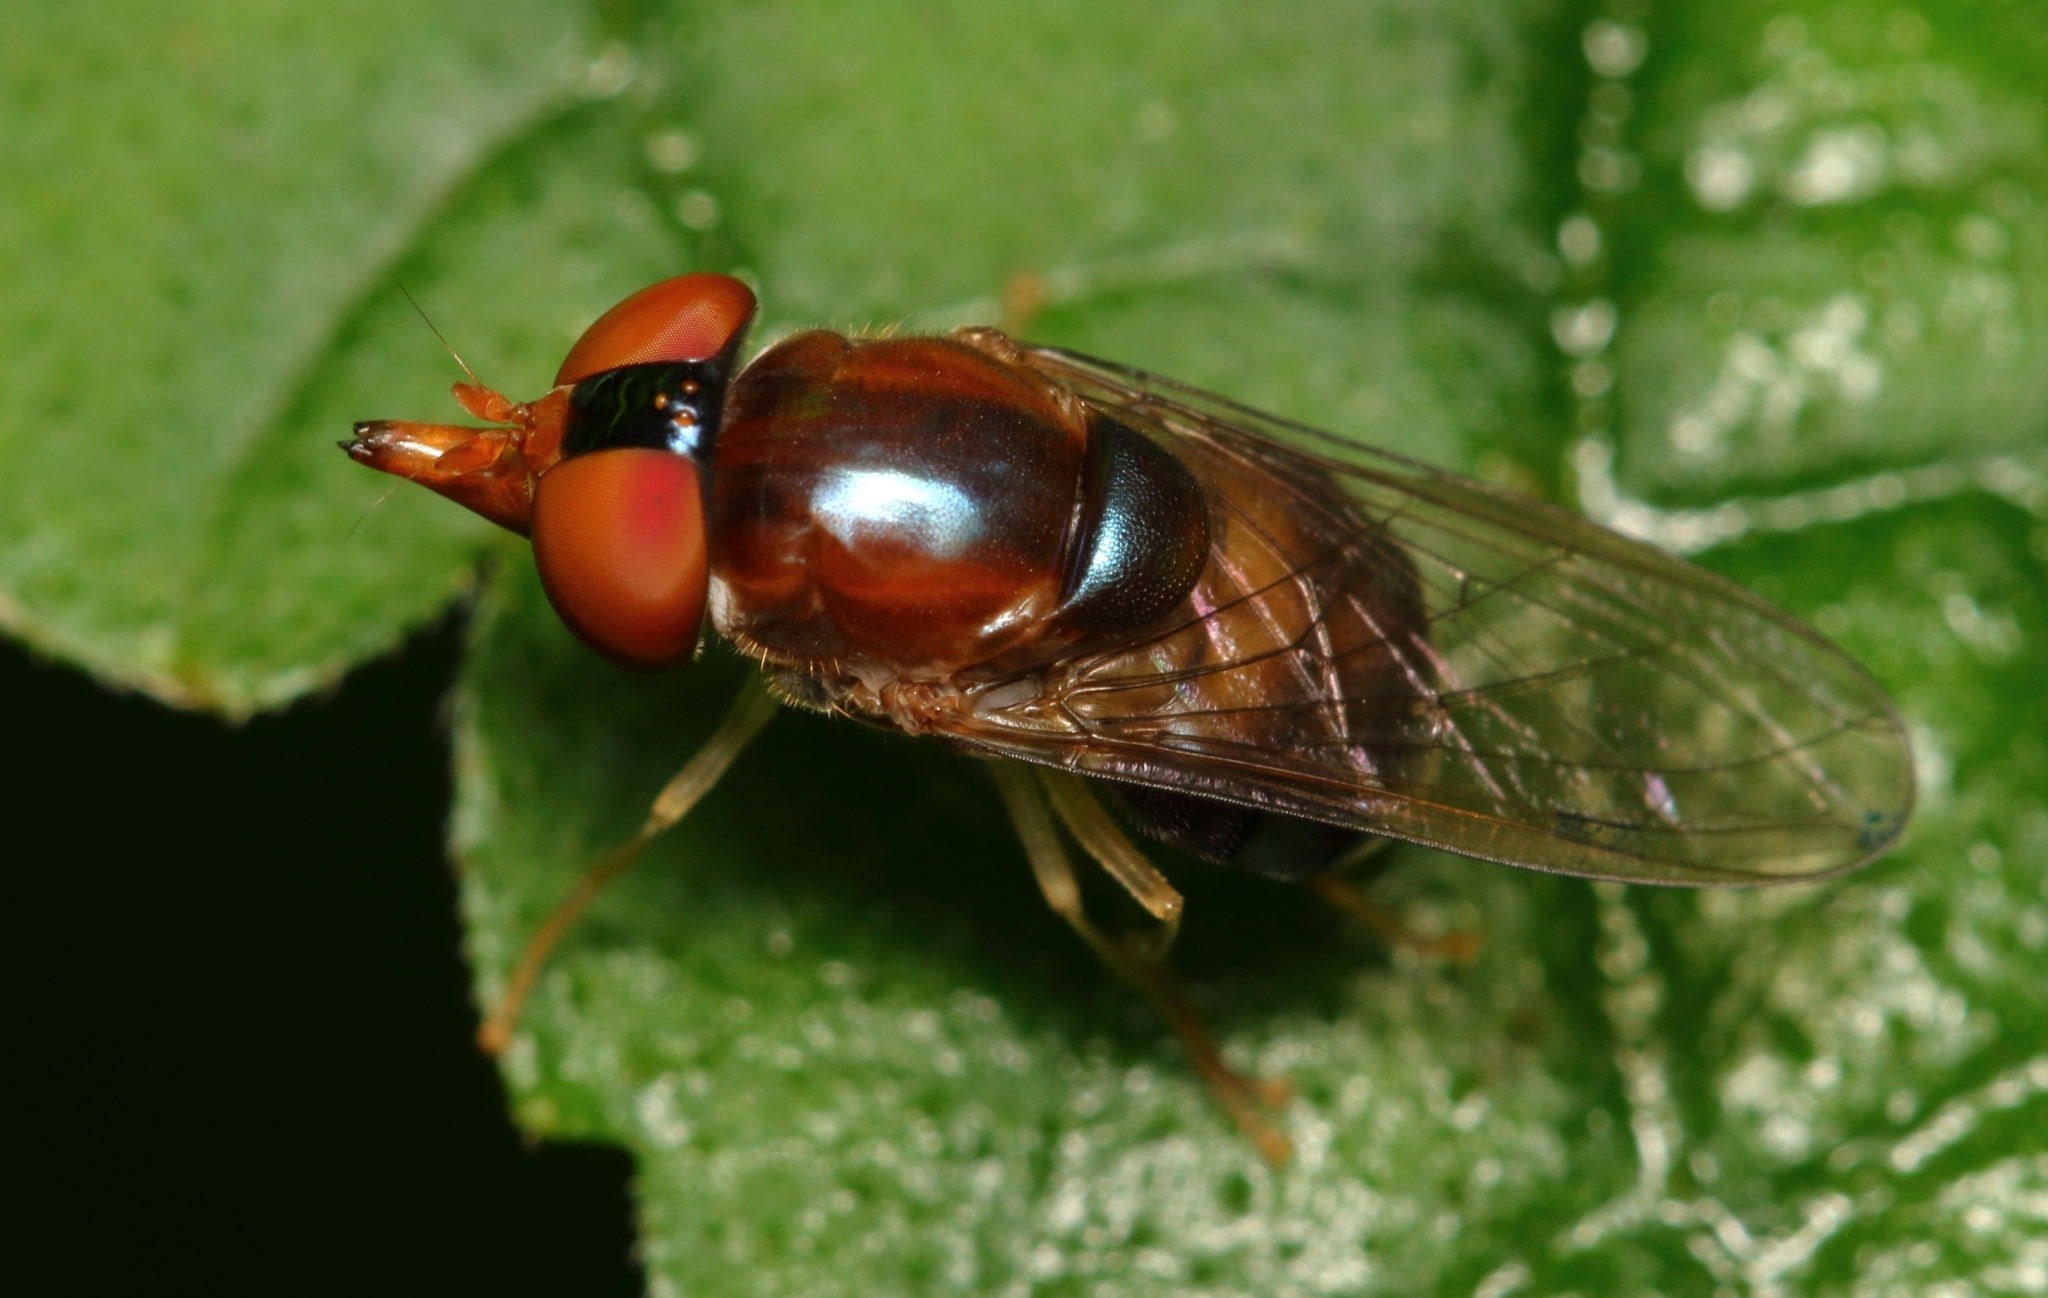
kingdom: Animalia
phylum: Arthropoda
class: Insecta
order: Diptera
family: Syrphidae
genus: Rhingia
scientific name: Rhingia caerulescens
